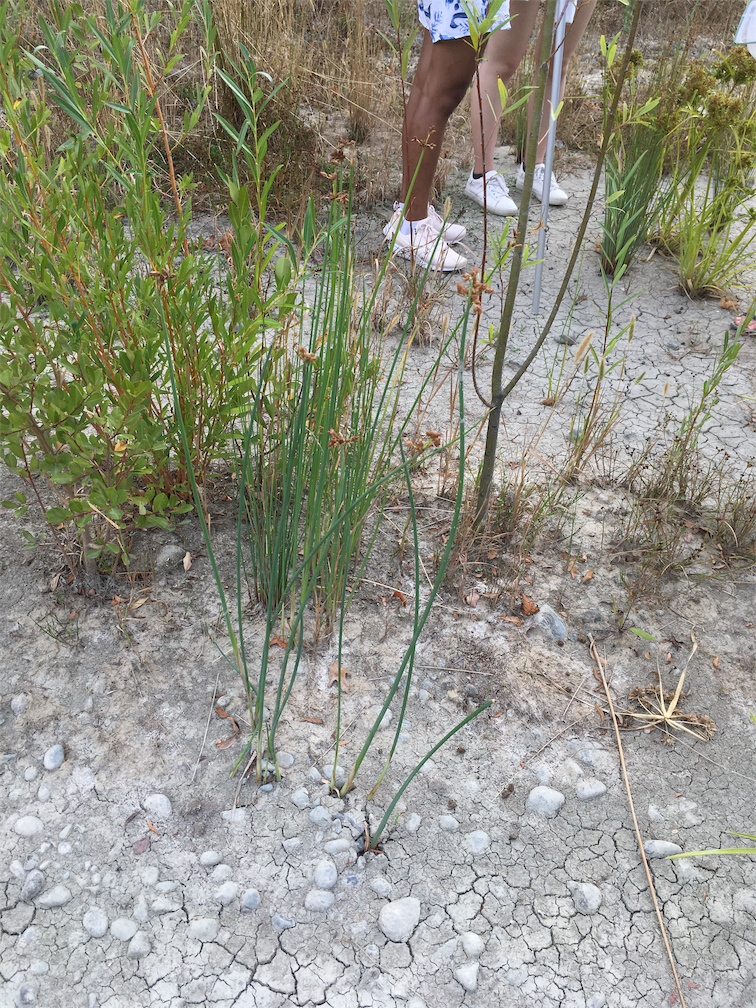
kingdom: Plantae
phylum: Tracheophyta
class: Liliopsida
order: Poales
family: Cyperaceae
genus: Schoenoplectus
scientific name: Schoenoplectus tabernaemontani
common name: Grey club-rush
